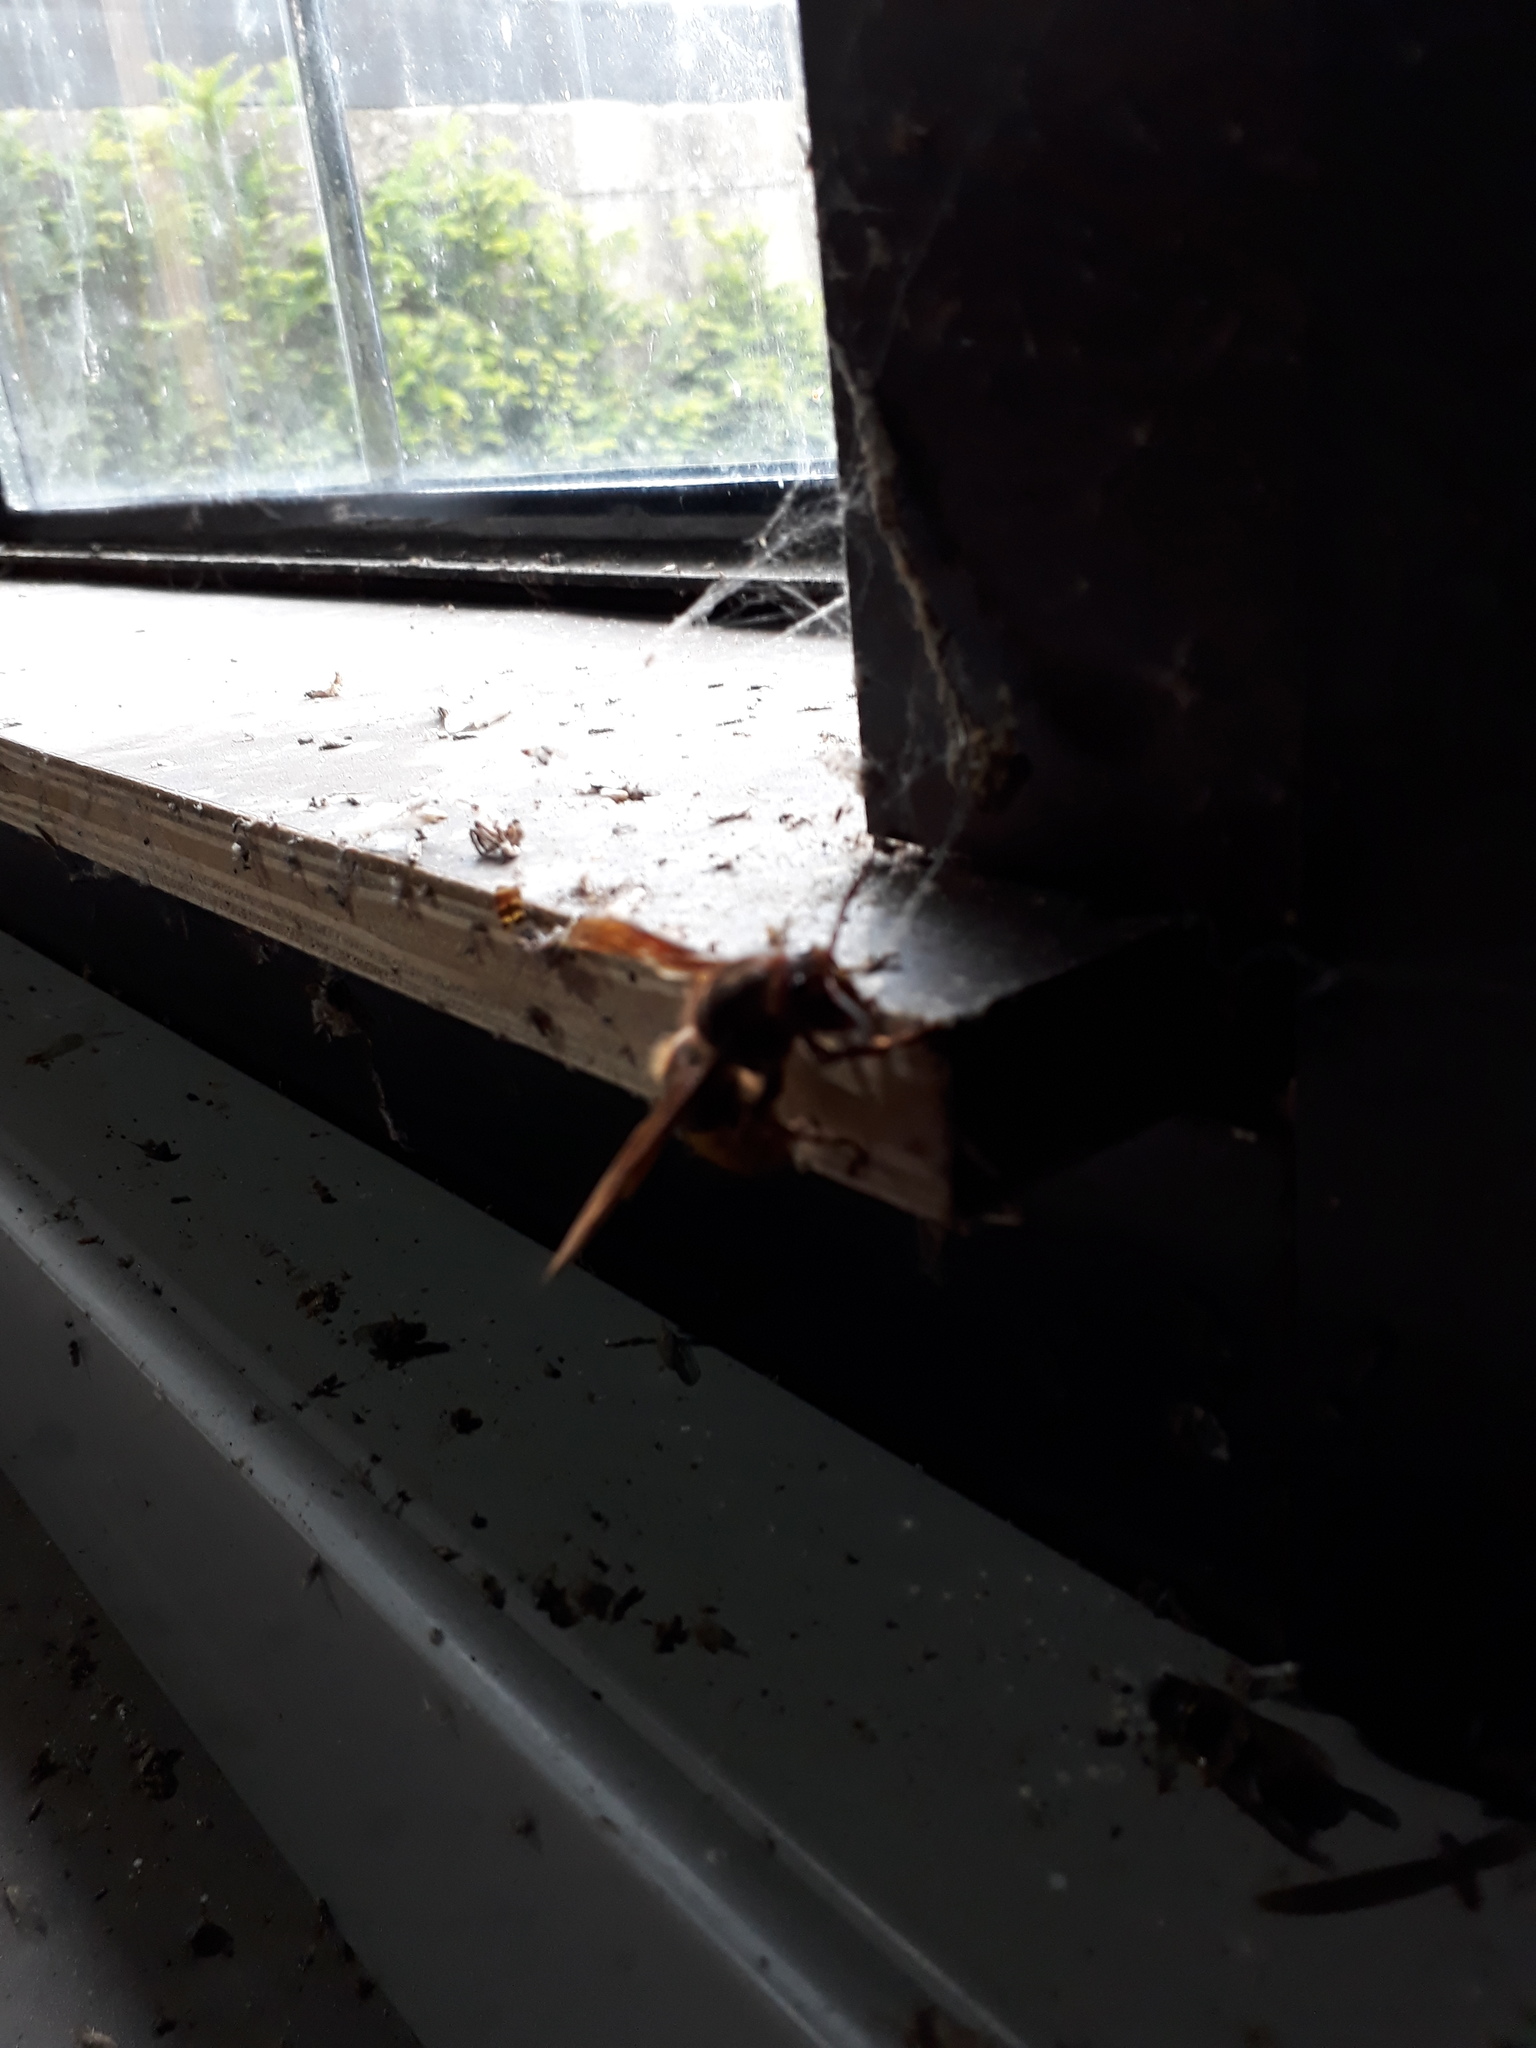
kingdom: Animalia
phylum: Arthropoda
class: Insecta
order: Hymenoptera
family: Vespidae
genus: Vespa
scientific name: Vespa crabro
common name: Hornet
